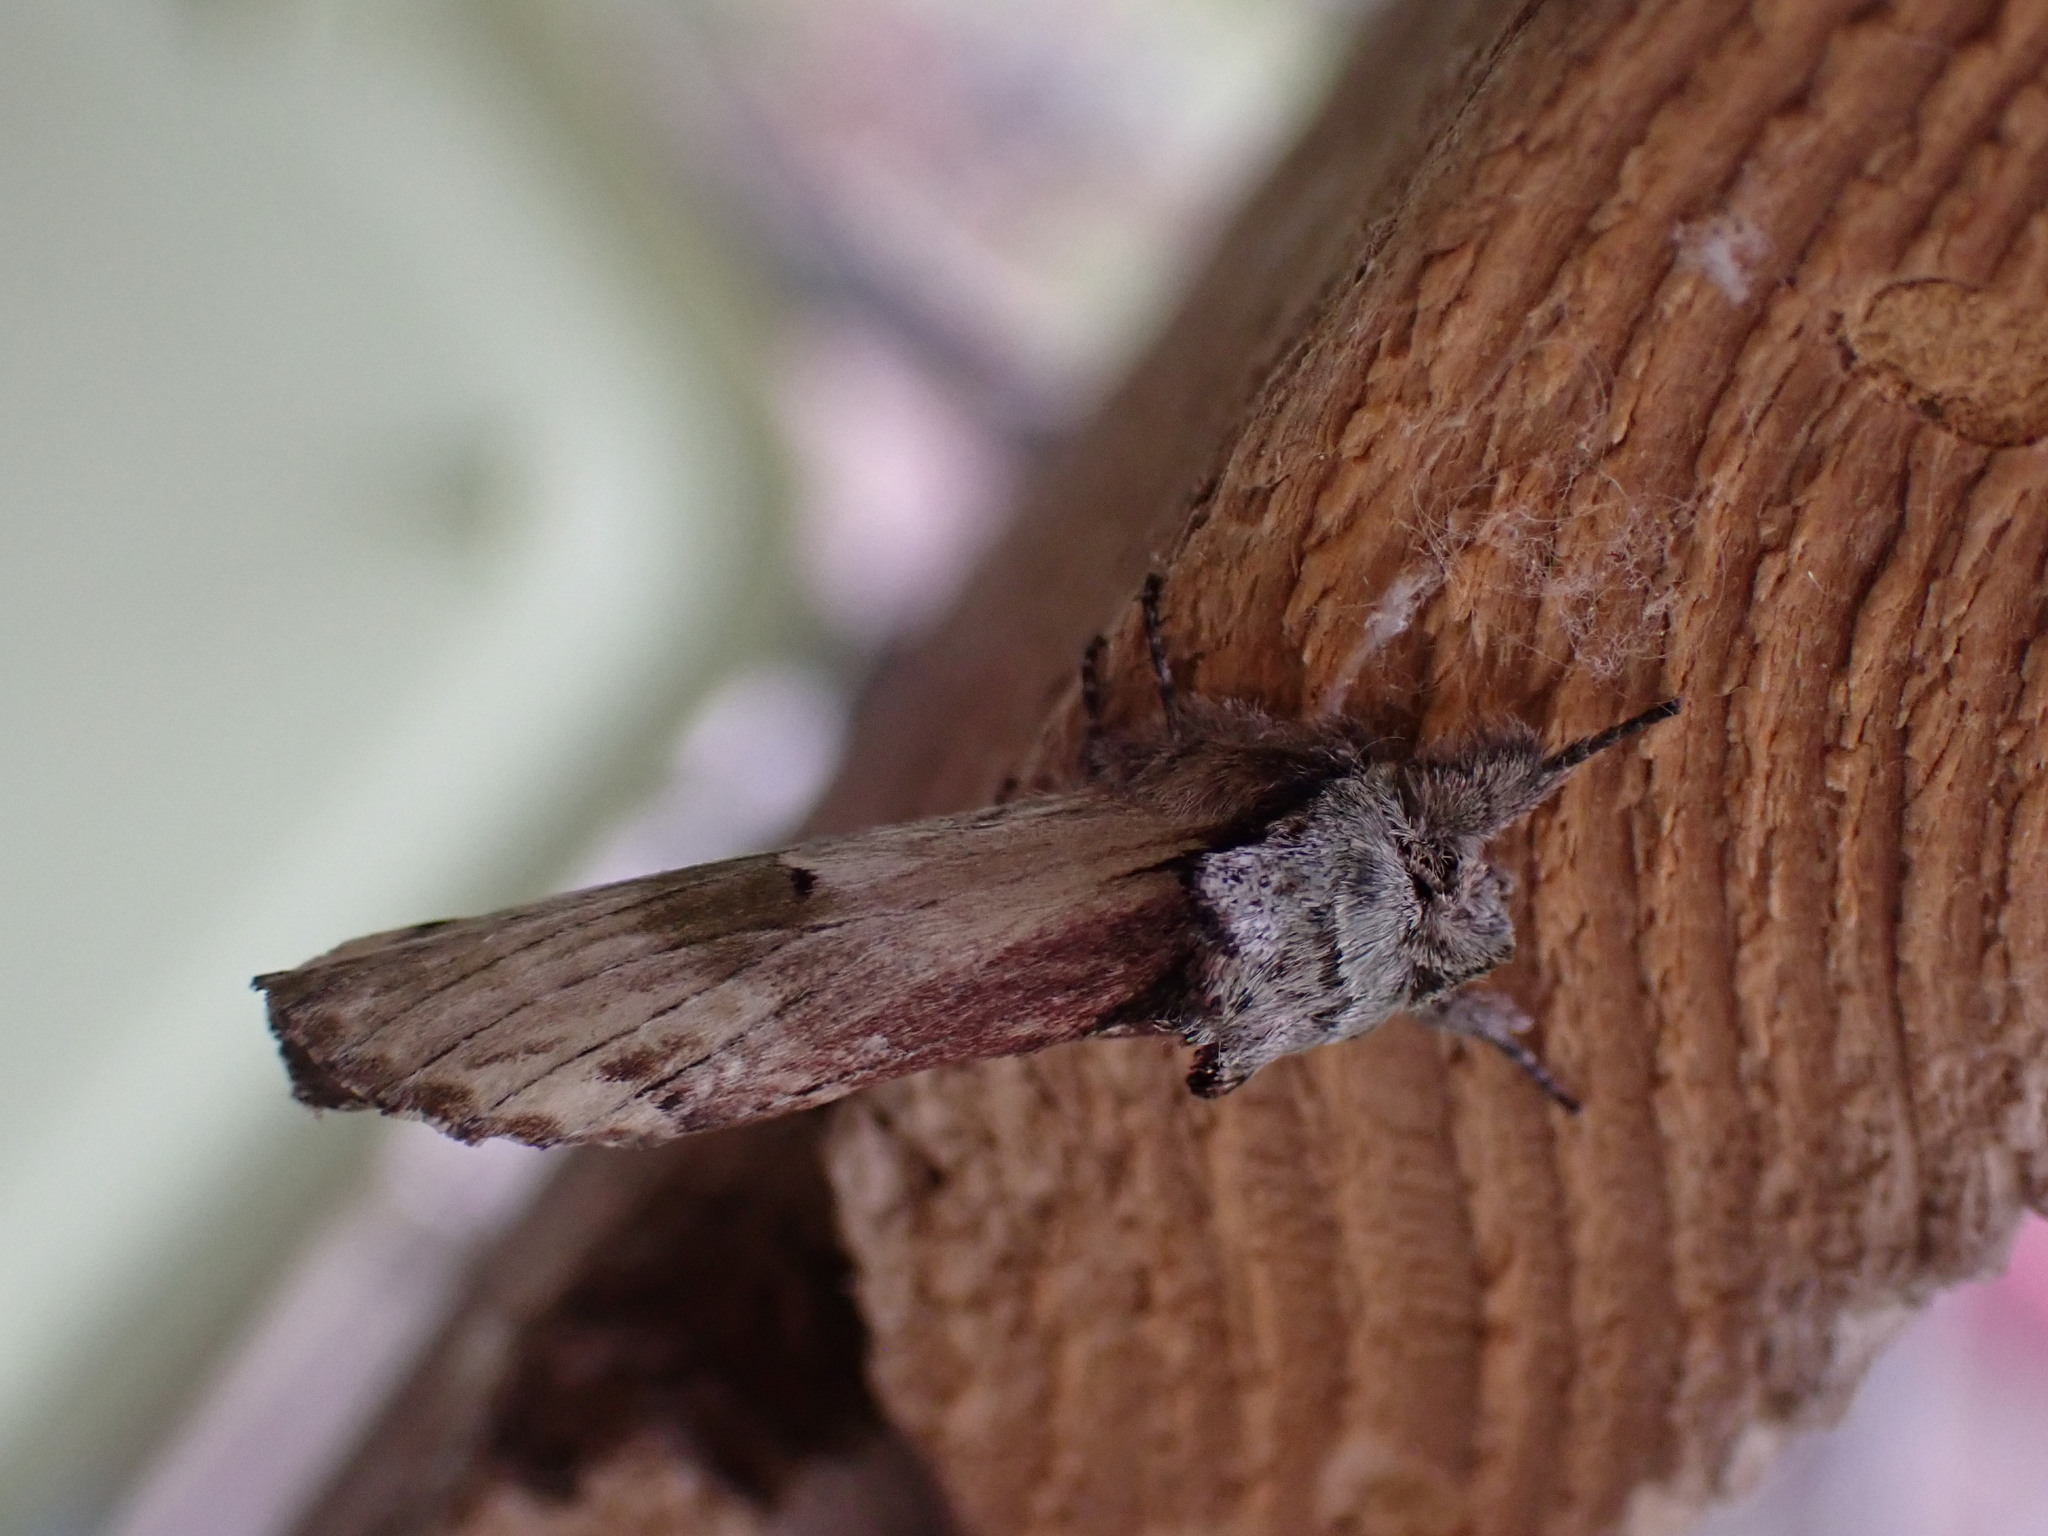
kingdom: Animalia
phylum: Arthropoda
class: Insecta
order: Lepidoptera
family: Notodontidae
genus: Schizura
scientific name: Schizura
